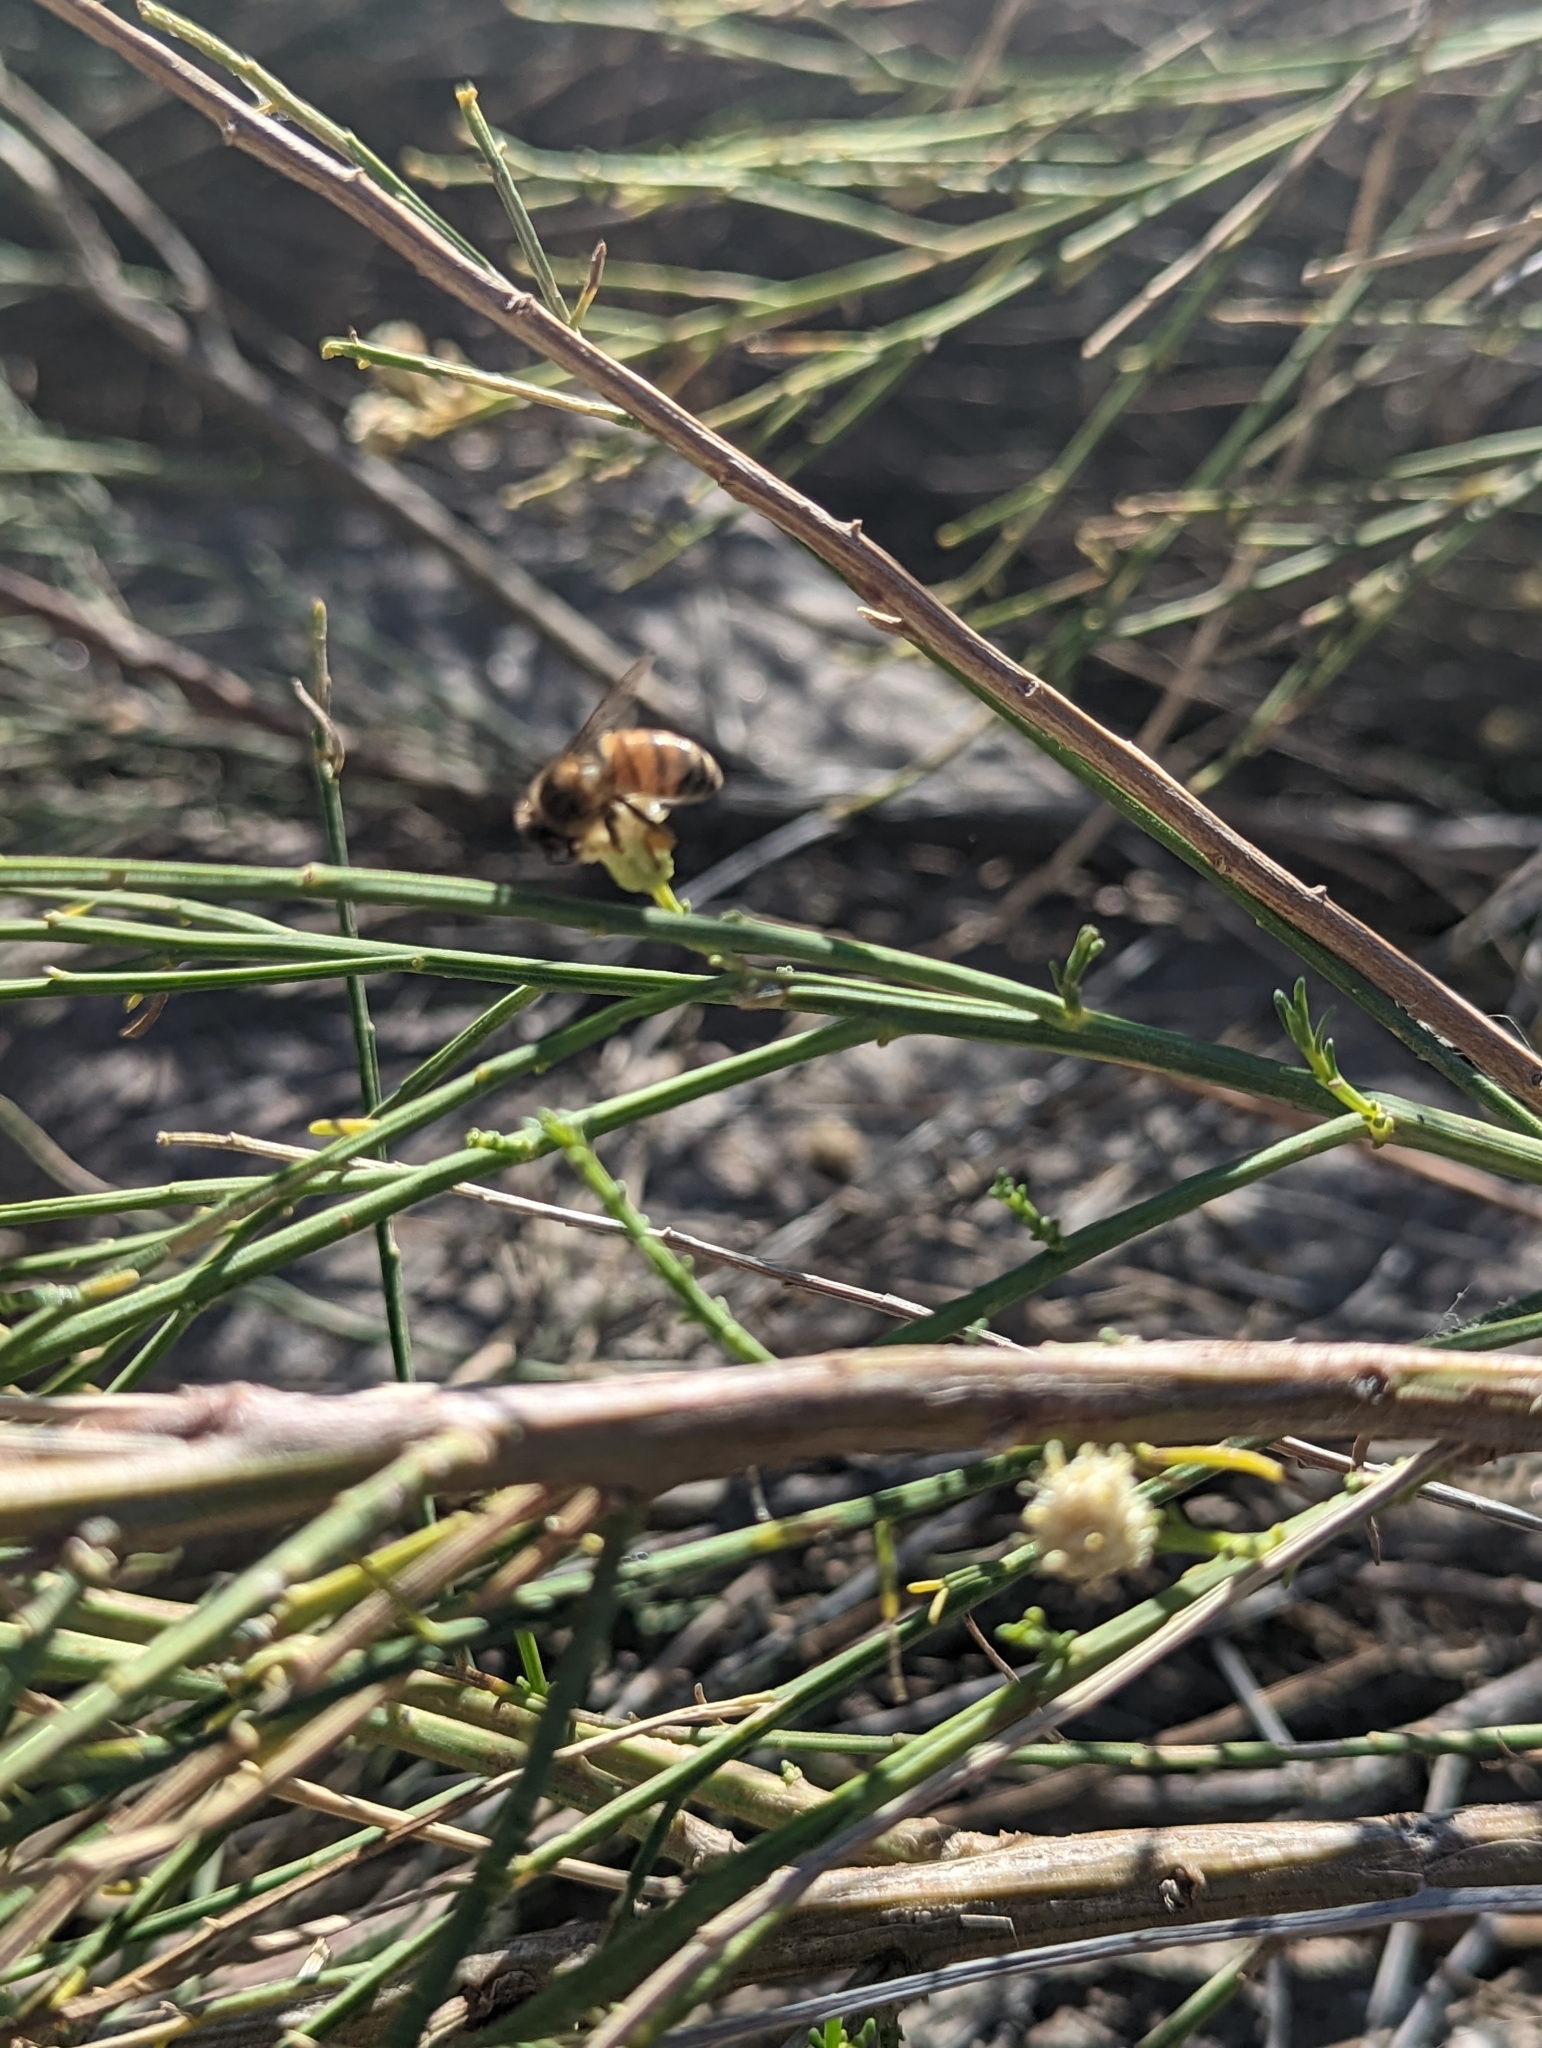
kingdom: Animalia
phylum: Arthropoda
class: Insecta
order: Hymenoptera
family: Apidae
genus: Apis
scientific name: Apis mellifera
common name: Honey bee
